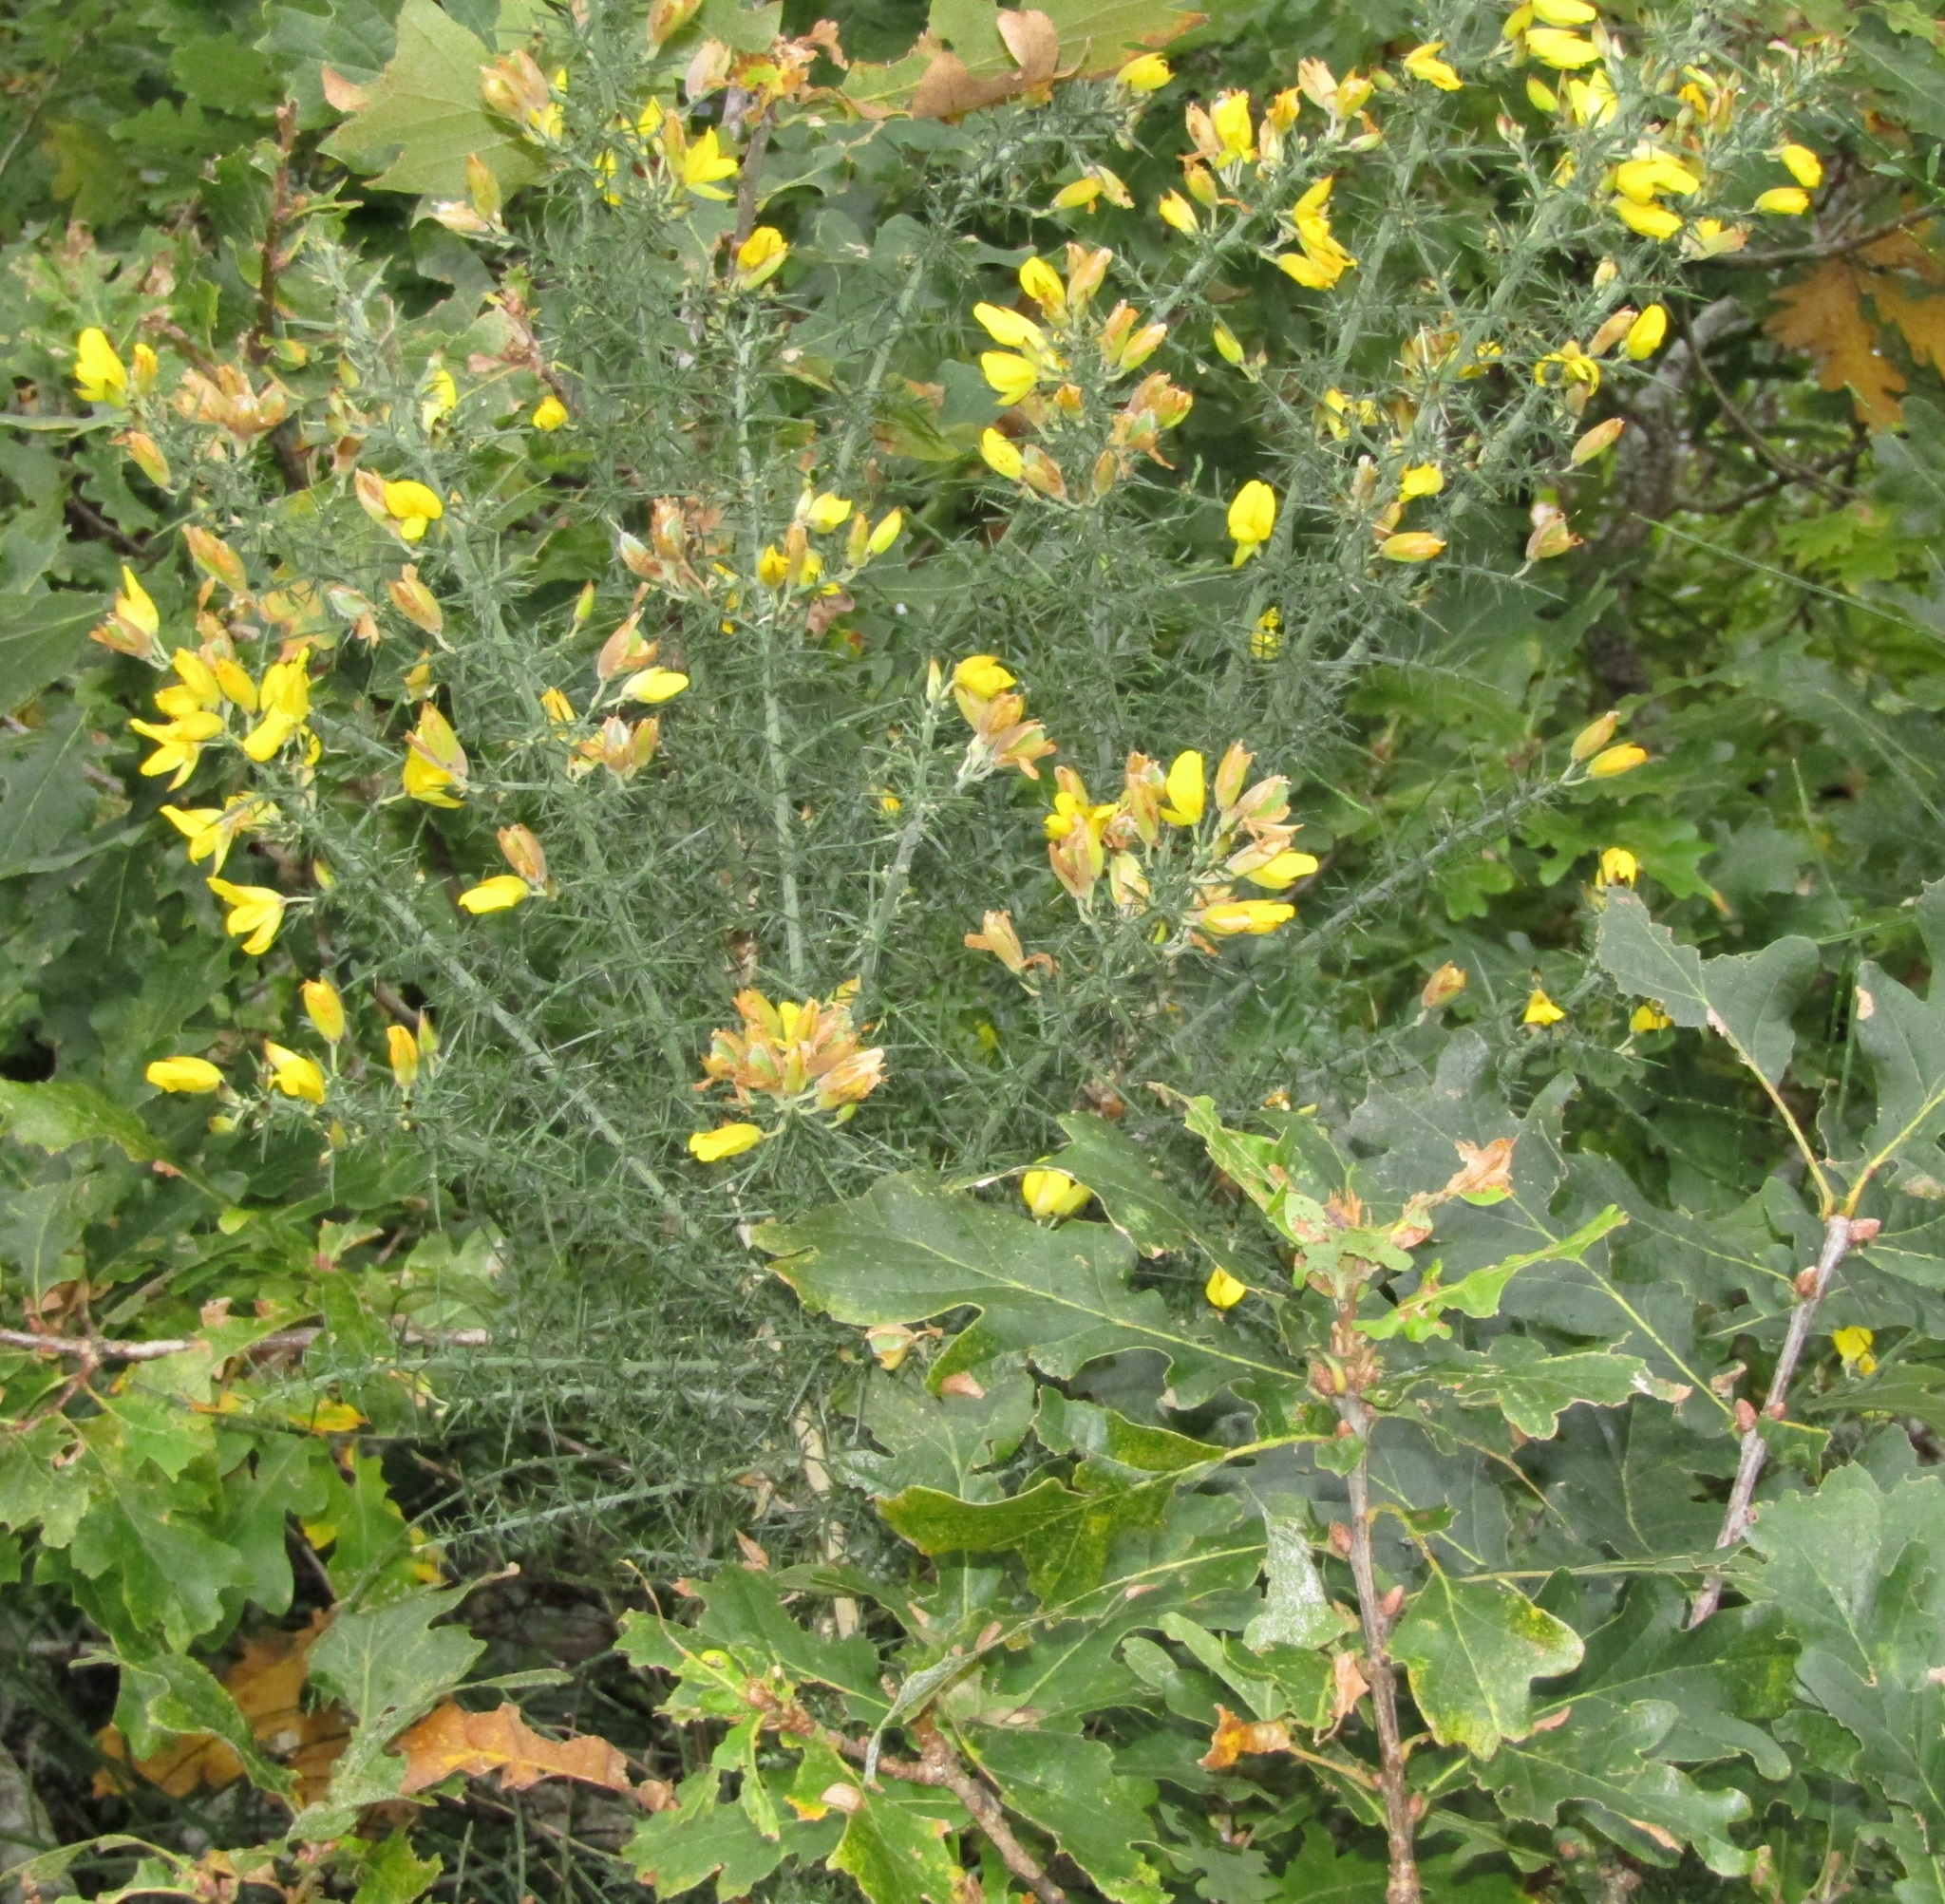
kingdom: Plantae
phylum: Tracheophyta
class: Magnoliopsida
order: Fabales
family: Fabaceae
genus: Ulex
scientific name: Ulex europaeus
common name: Common gorse
